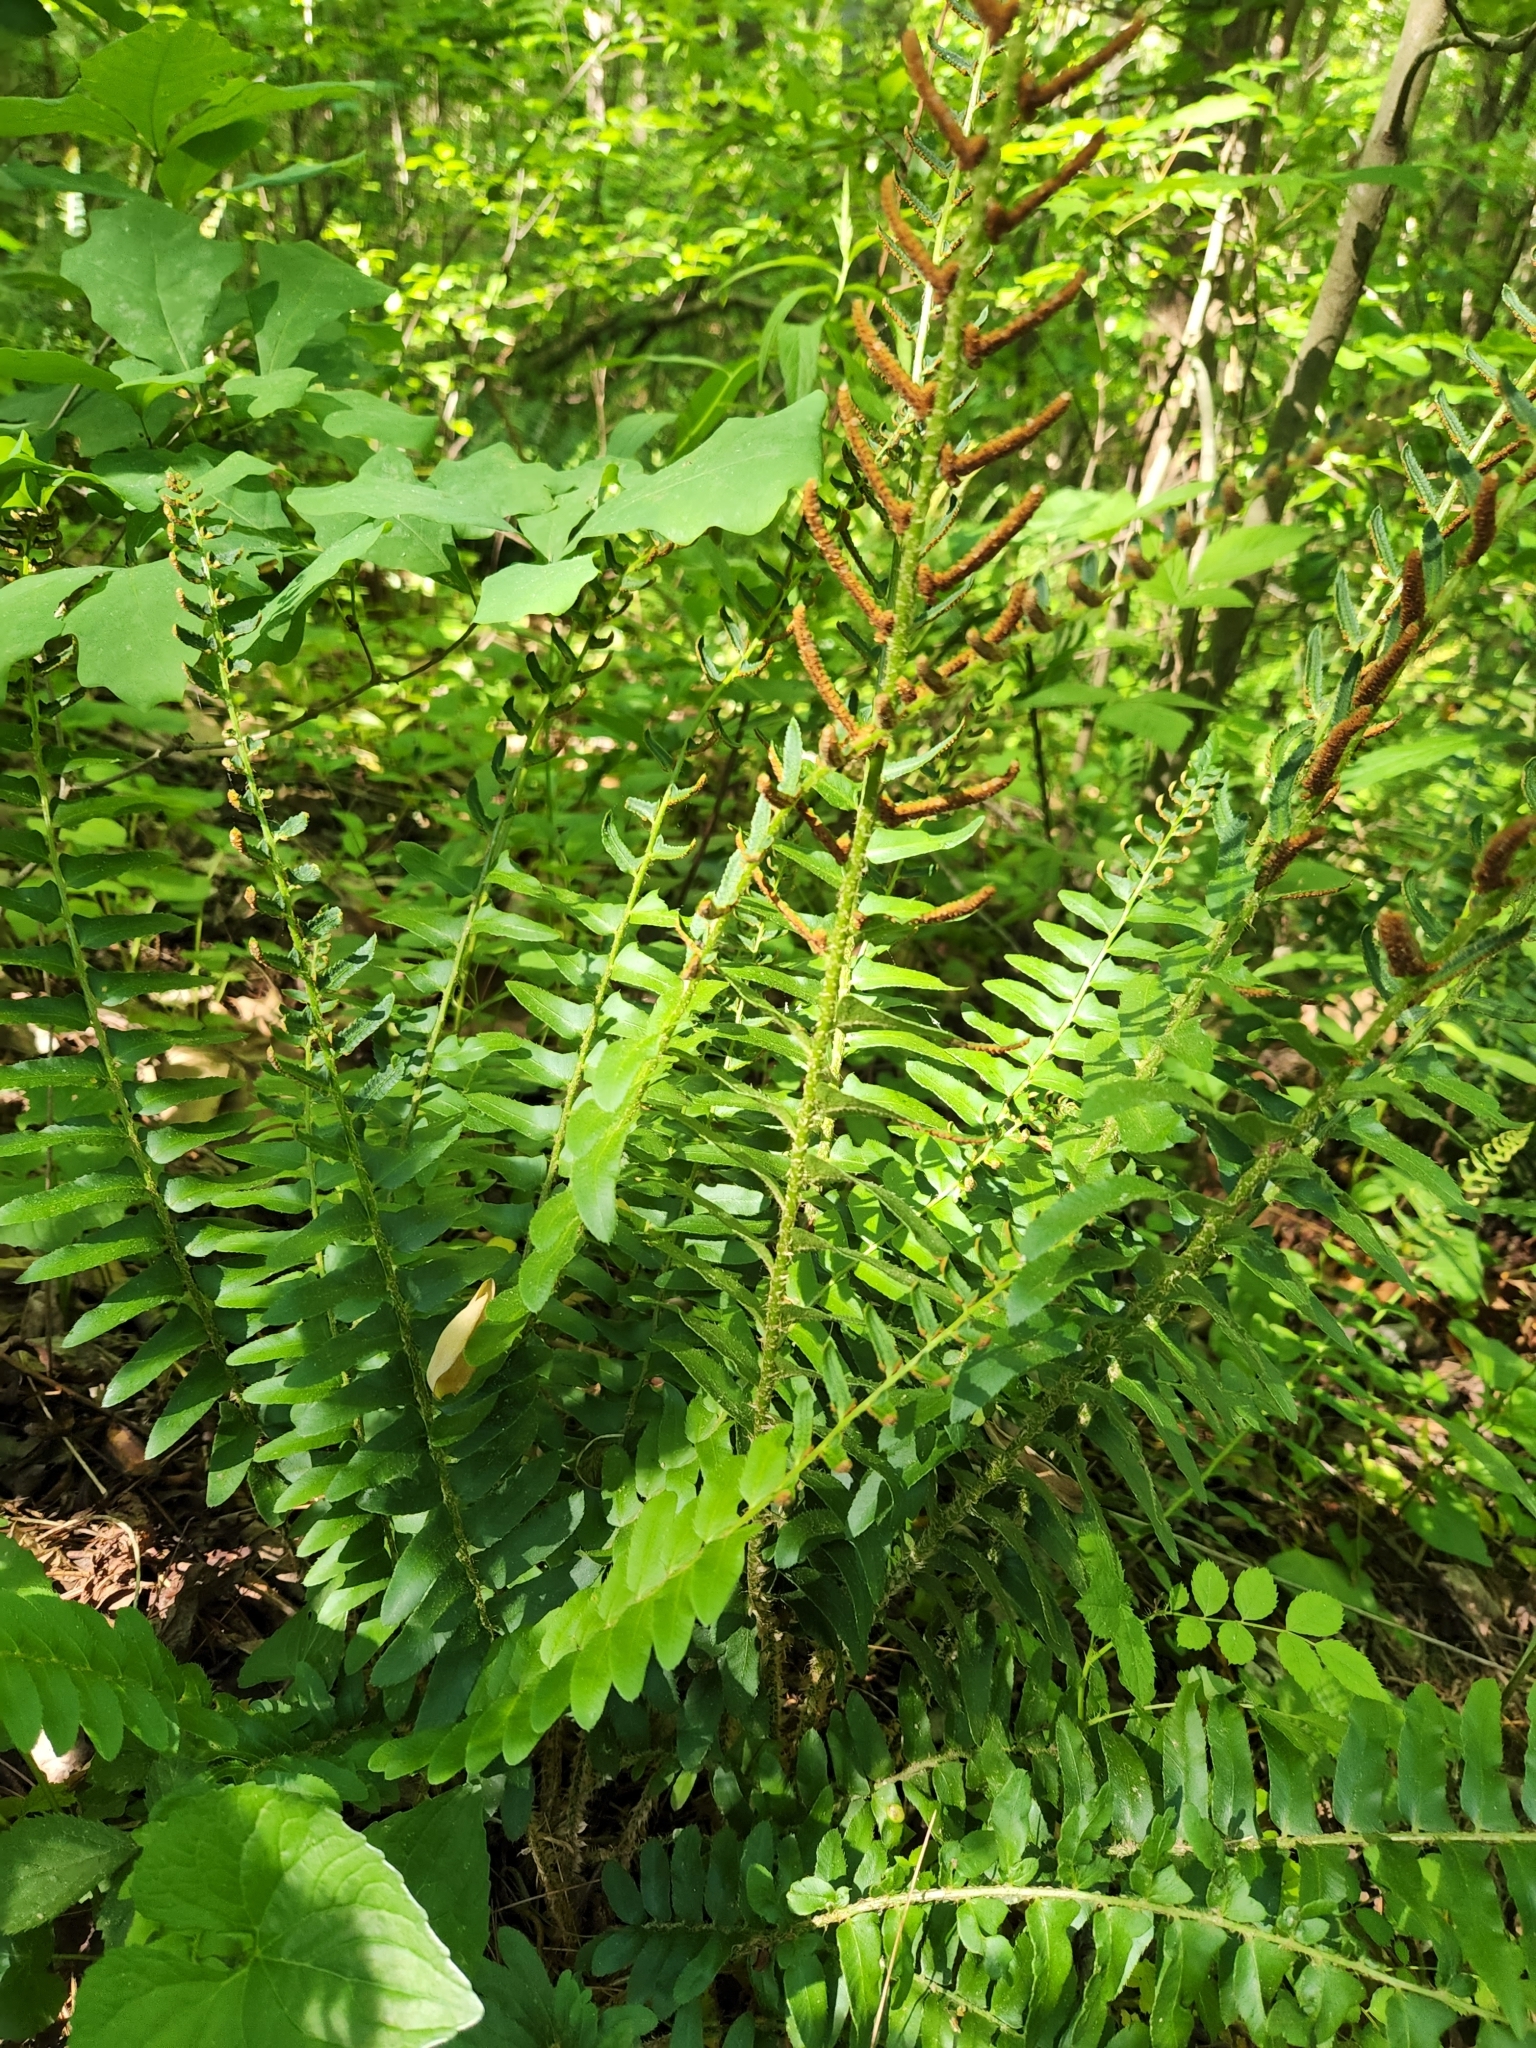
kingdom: Plantae
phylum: Tracheophyta
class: Polypodiopsida
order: Polypodiales
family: Dryopteridaceae
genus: Polystichum
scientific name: Polystichum acrostichoides
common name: Christmas fern
